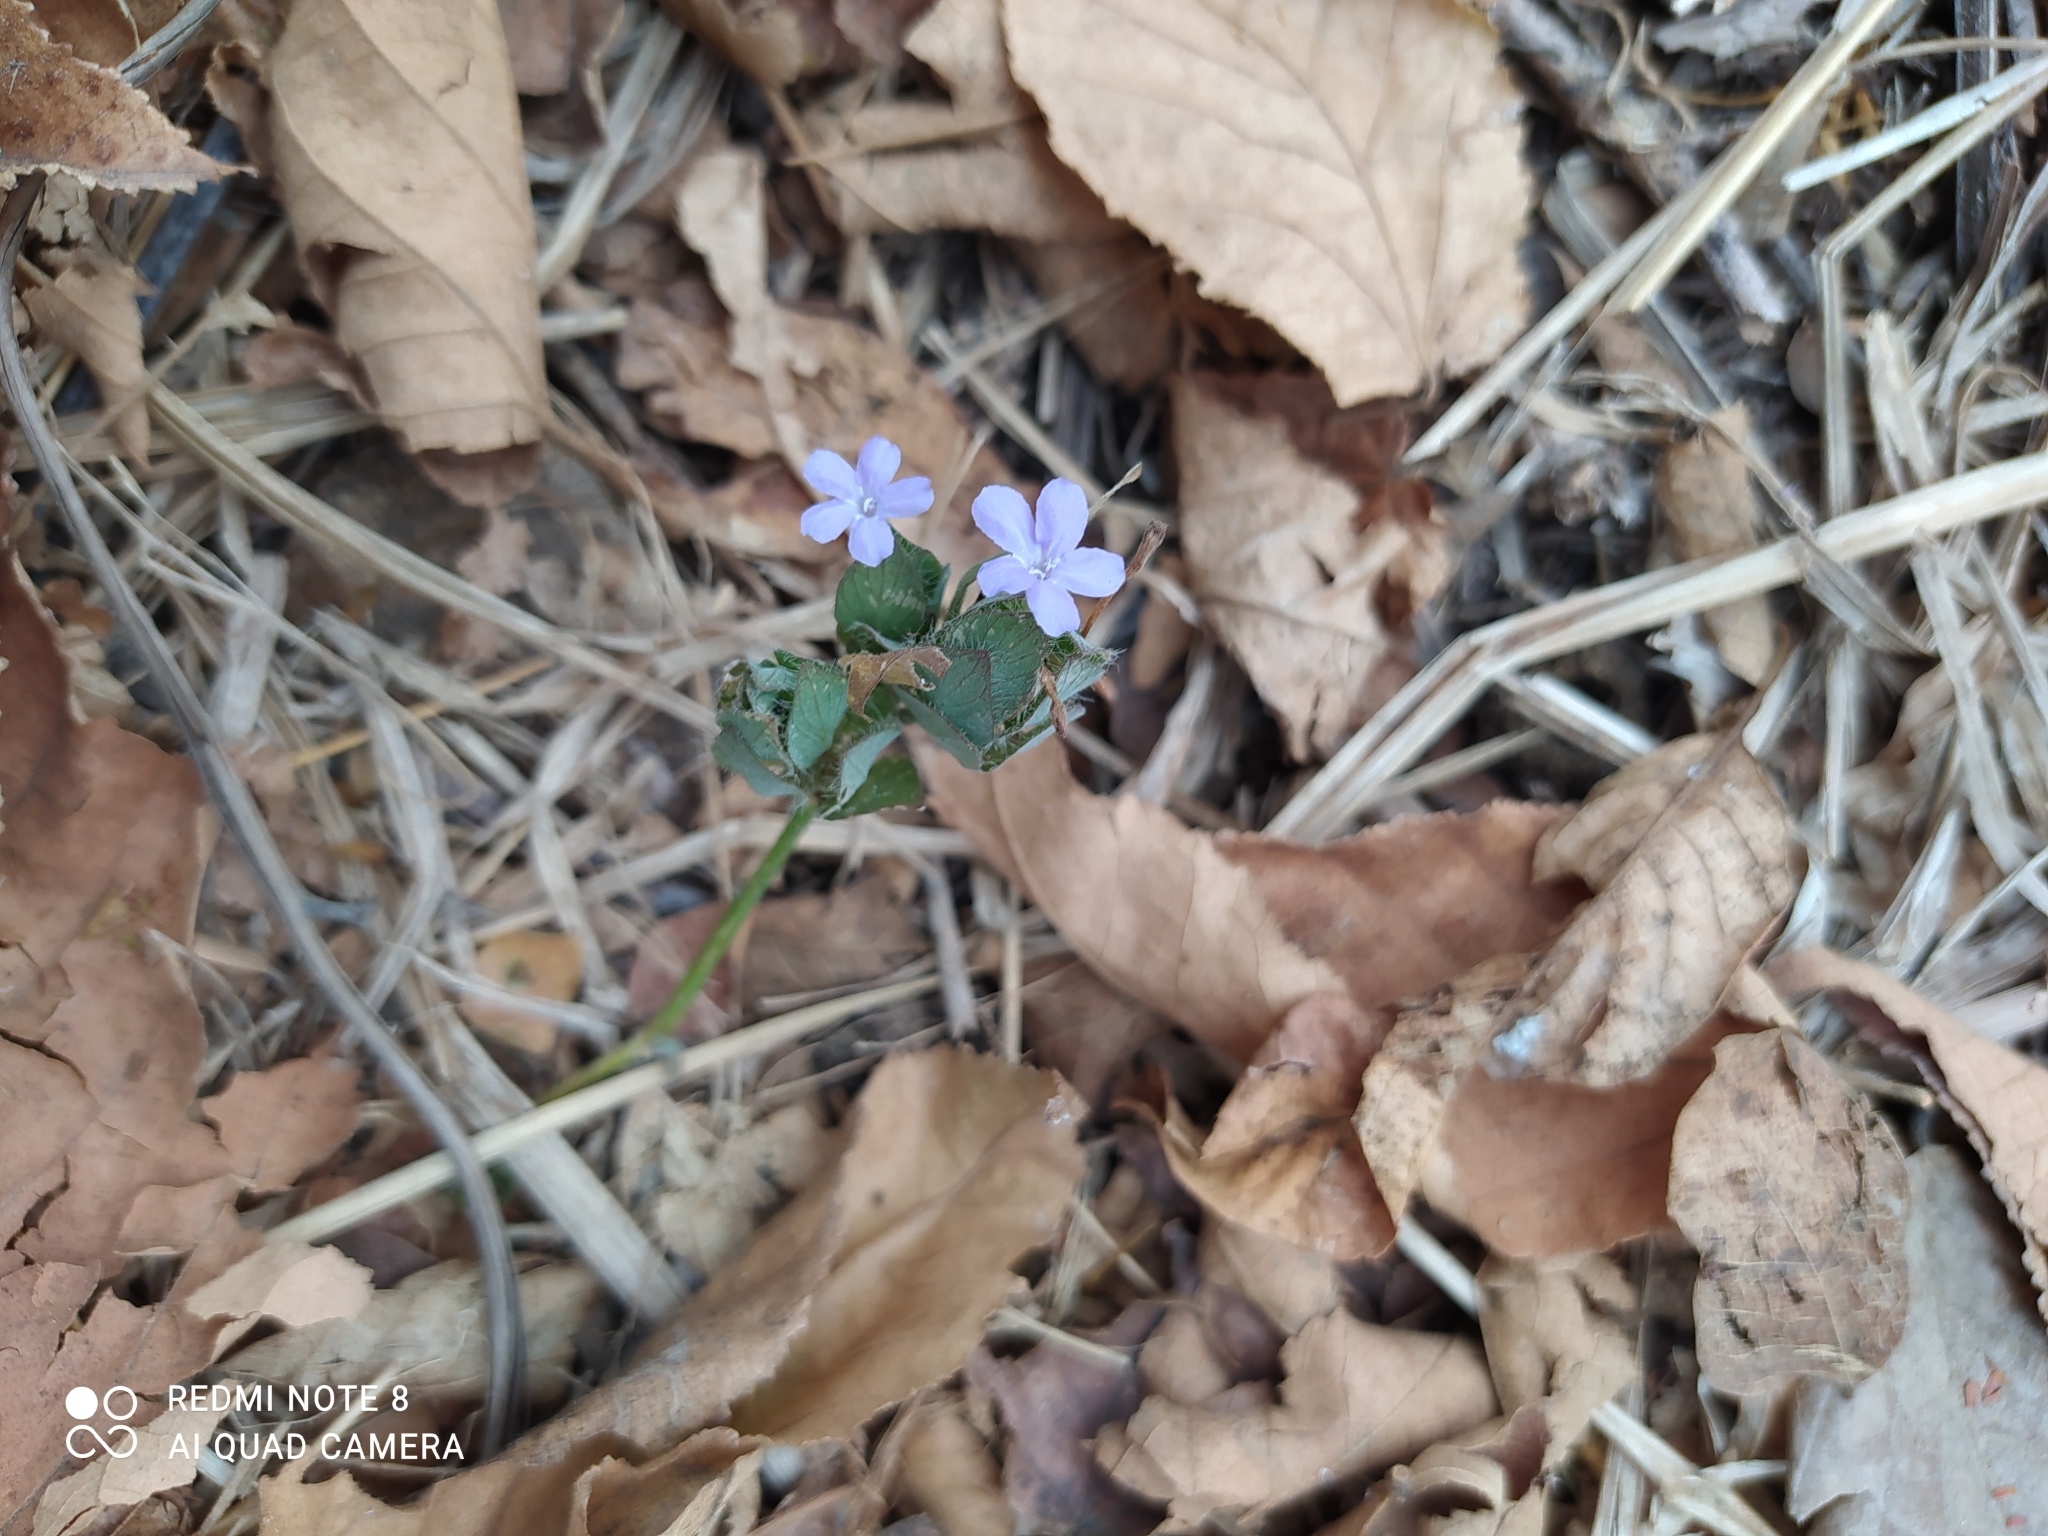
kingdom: Plantae
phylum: Tracheophyta
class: Magnoliopsida
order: Lamiales
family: Acanthaceae
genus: Ruellia
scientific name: Ruellia blechum
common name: Browne's blechum
